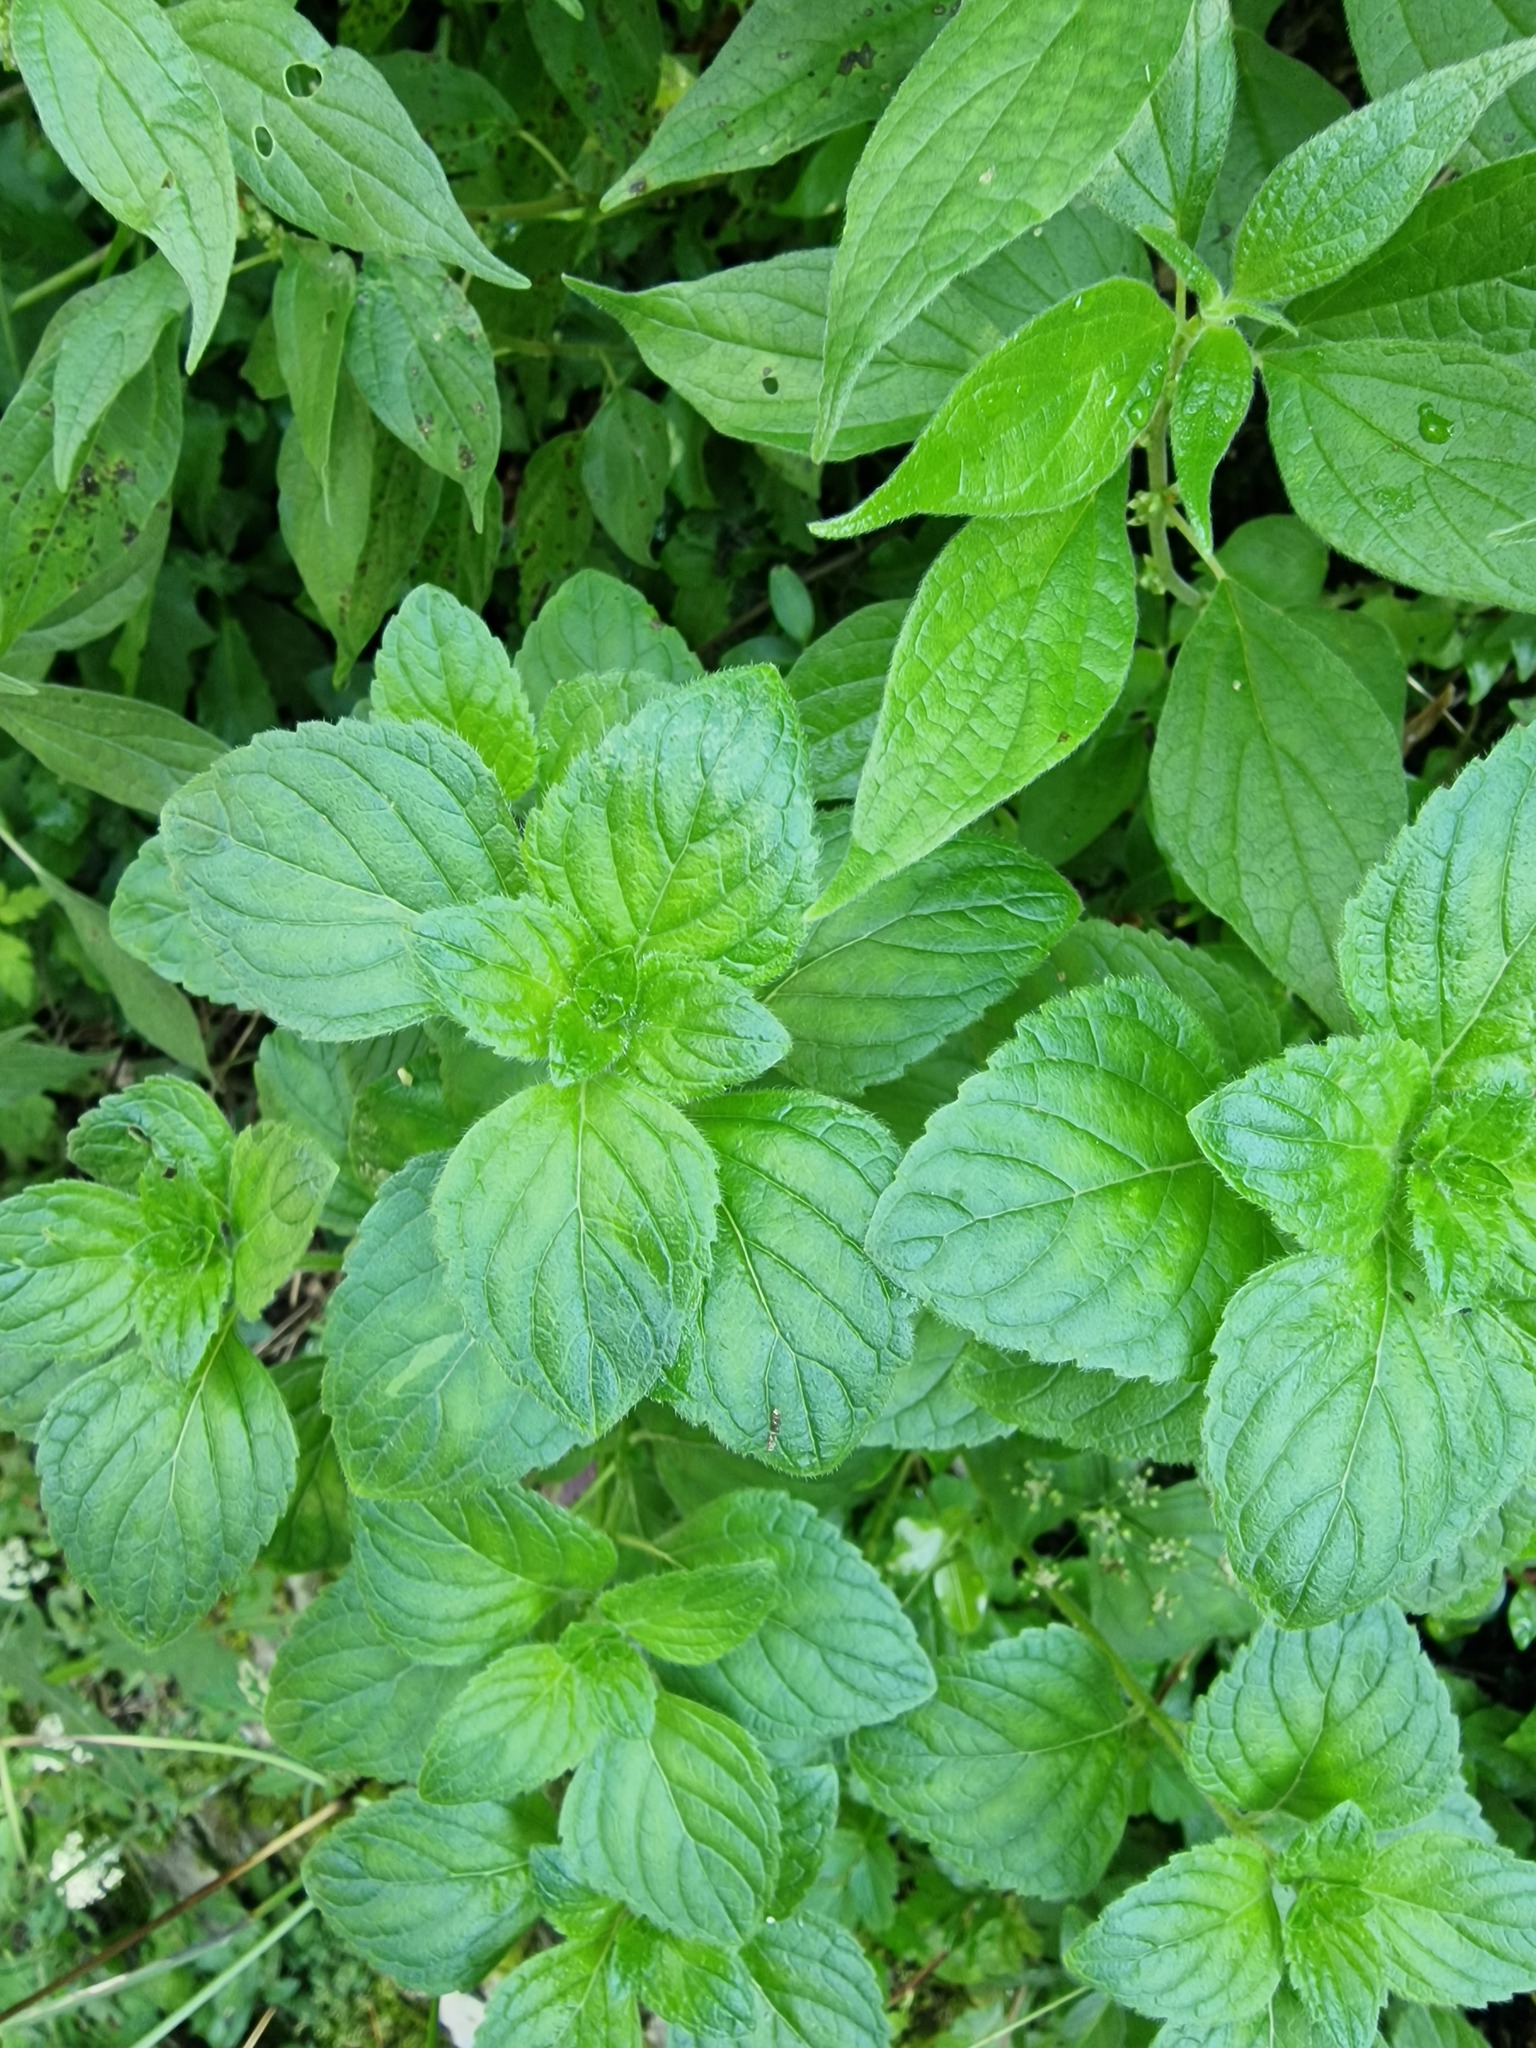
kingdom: Plantae
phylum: Tracheophyta
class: Magnoliopsida
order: Lamiales
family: Lamiaceae
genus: Mentha
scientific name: Mentha arvensis
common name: Corn mint
